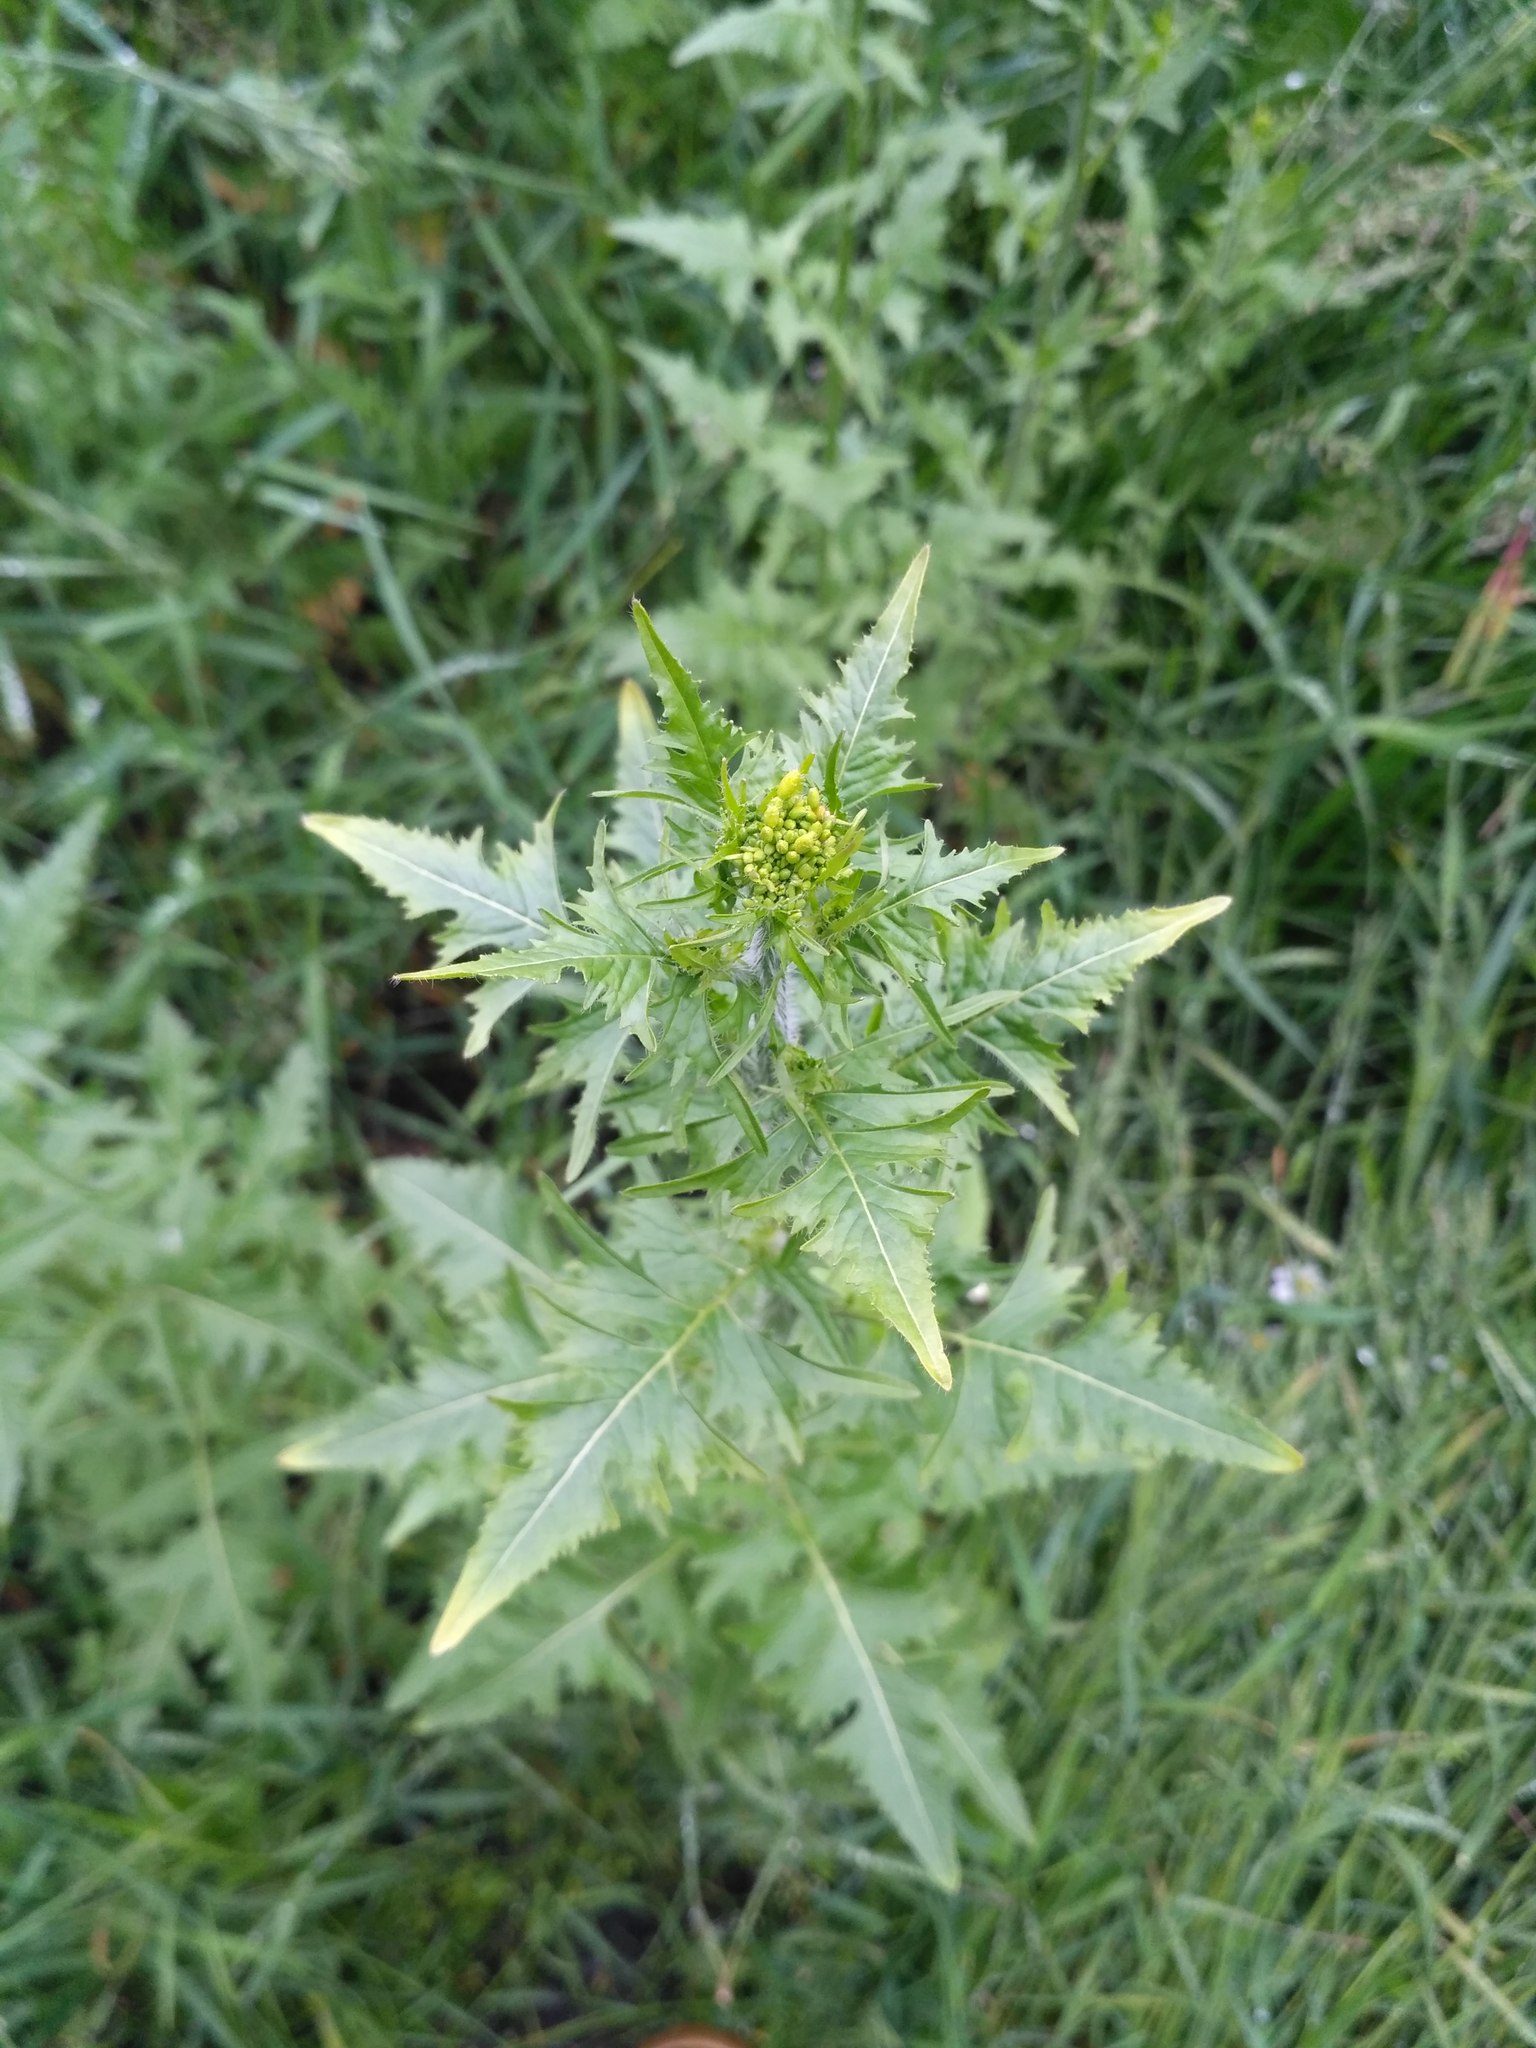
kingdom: Plantae
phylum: Tracheophyta
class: Magnoliopsida
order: Brassicales
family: Brassicaceae
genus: Sisymbrium
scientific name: Sisymbrium loeselii
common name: False london-rocket
